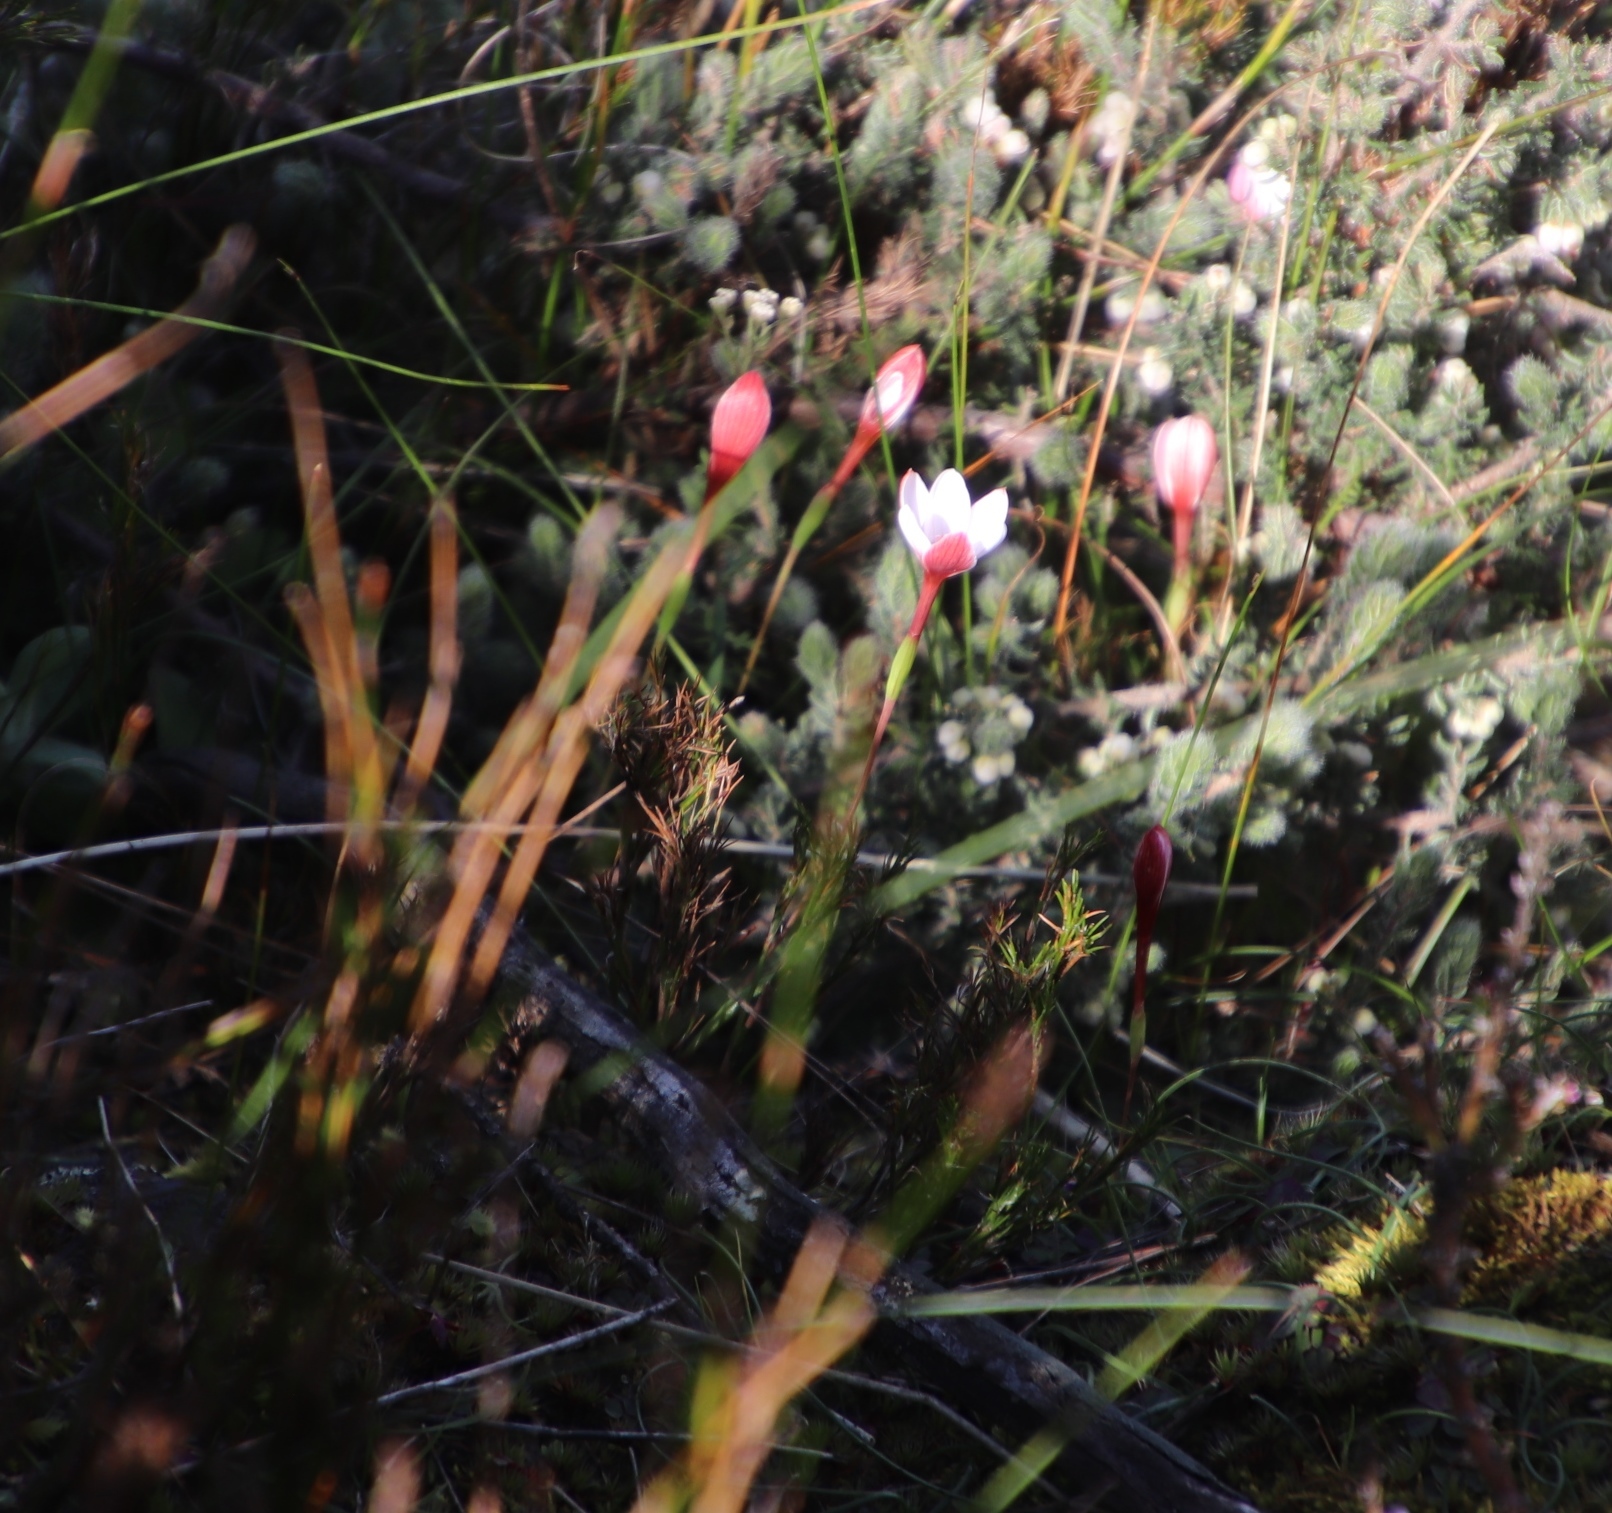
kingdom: Plantae
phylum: Tracheophyta
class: Liliopsida
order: Asparagales
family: Iridaceae
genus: Geissorhiza
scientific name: Geissorhiza ovata
